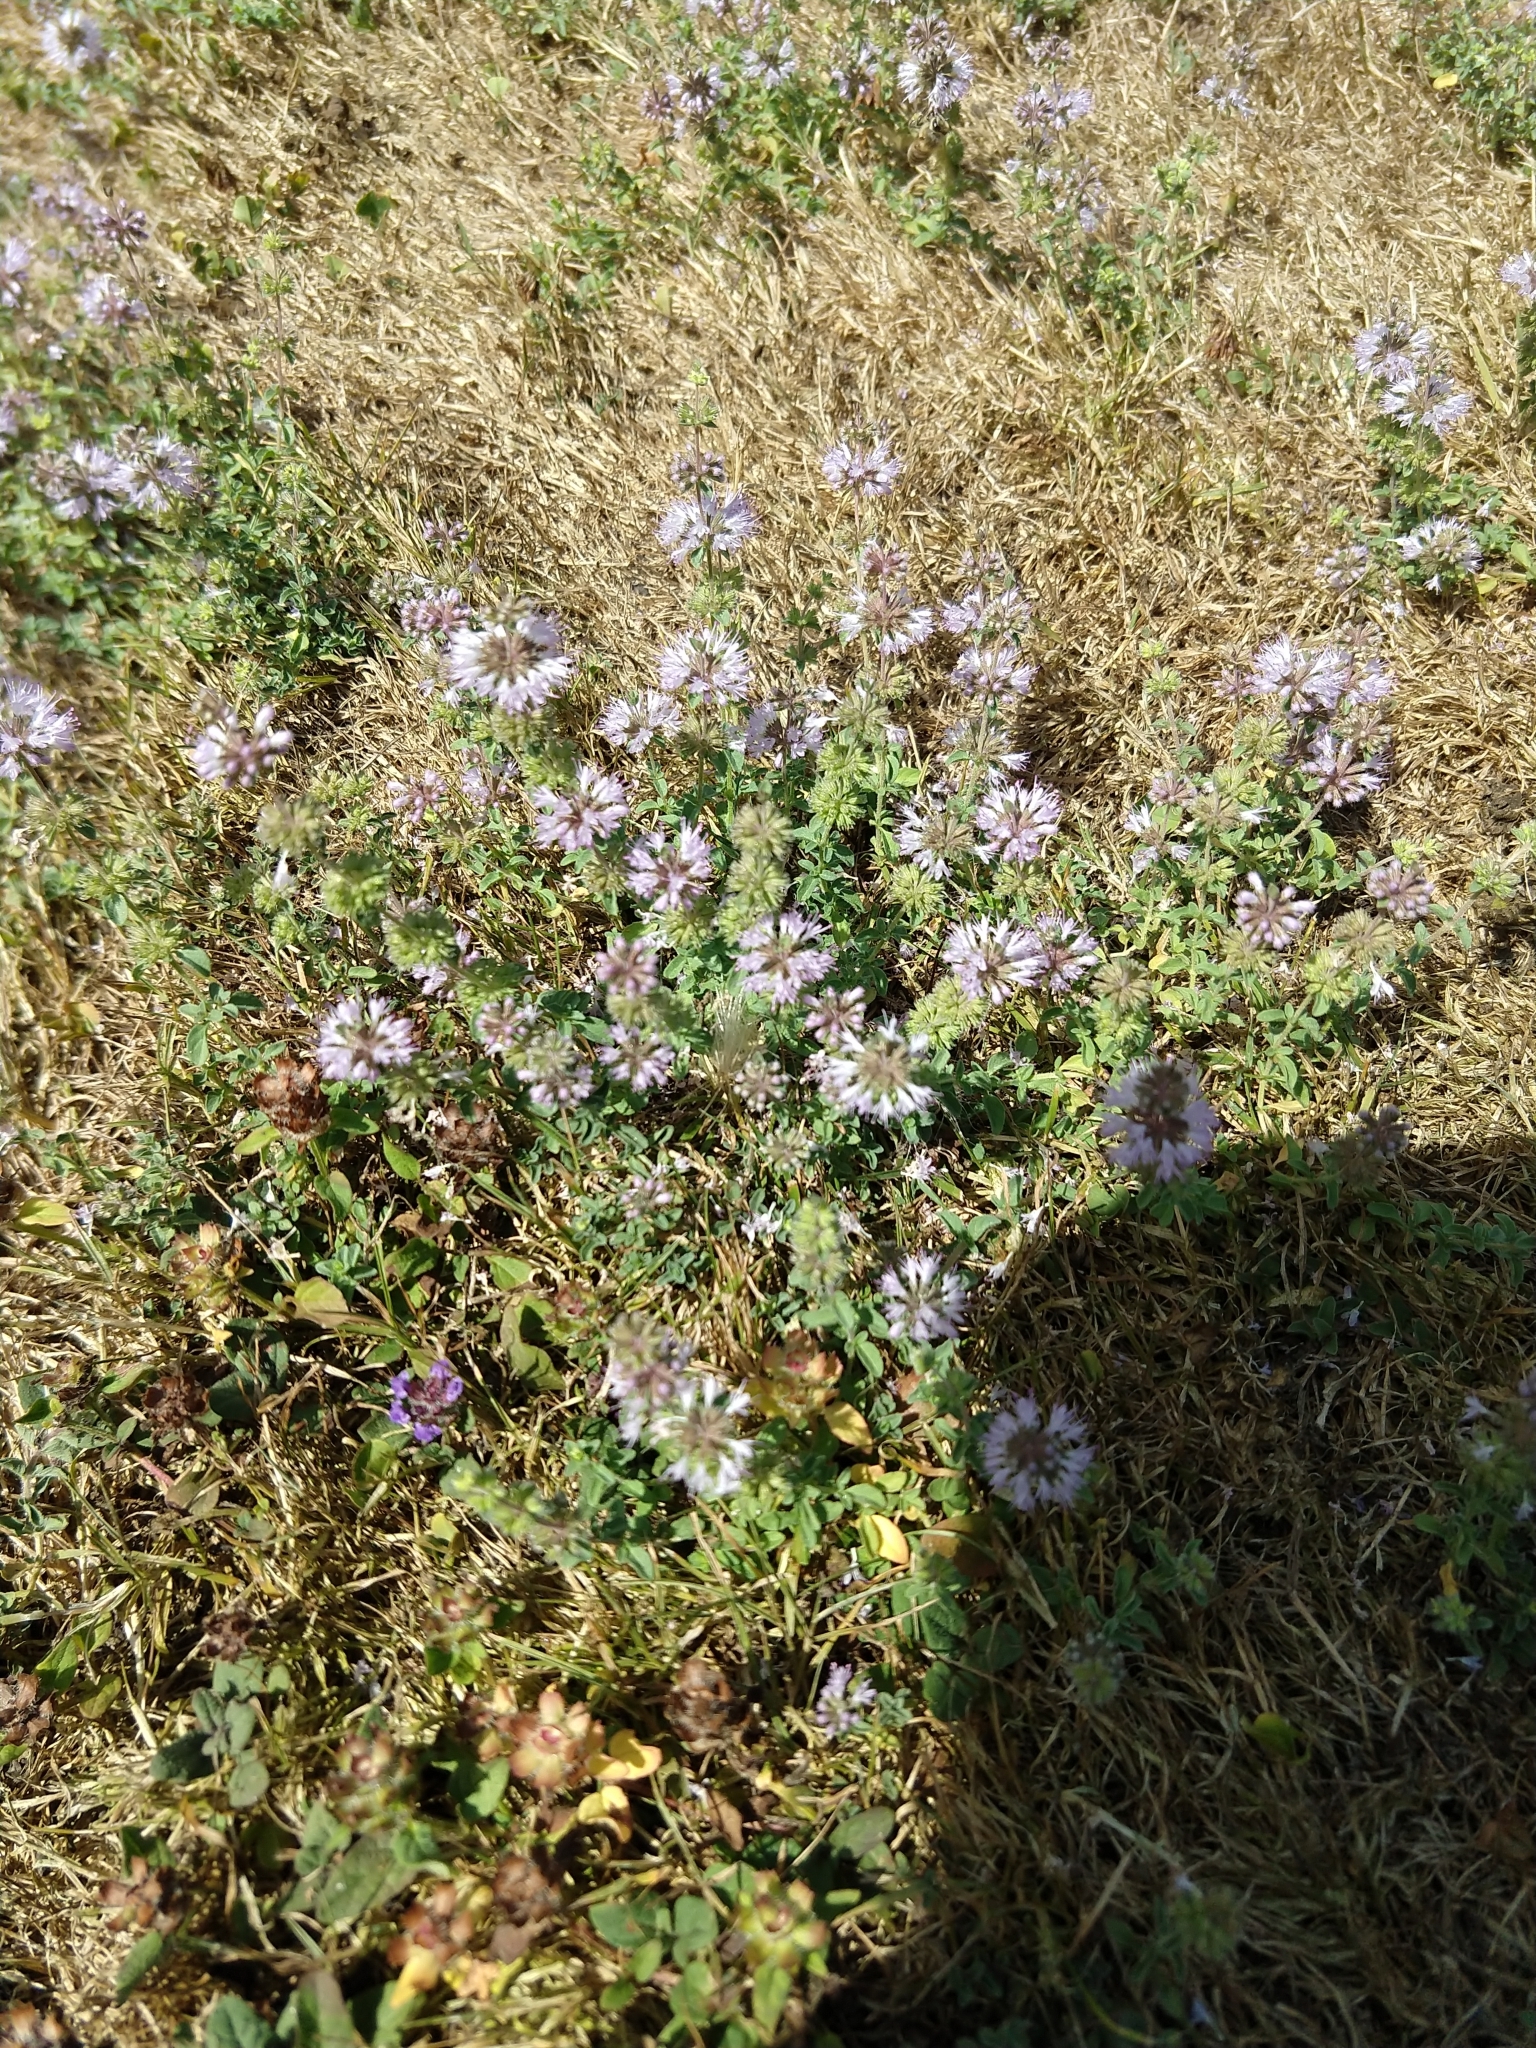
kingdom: Plantae
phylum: Tracheophyta
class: Magnoliopsida
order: Lamiales
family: Lamiaceae
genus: Mentha
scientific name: Mentha pulegium
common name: Pennyroyal
